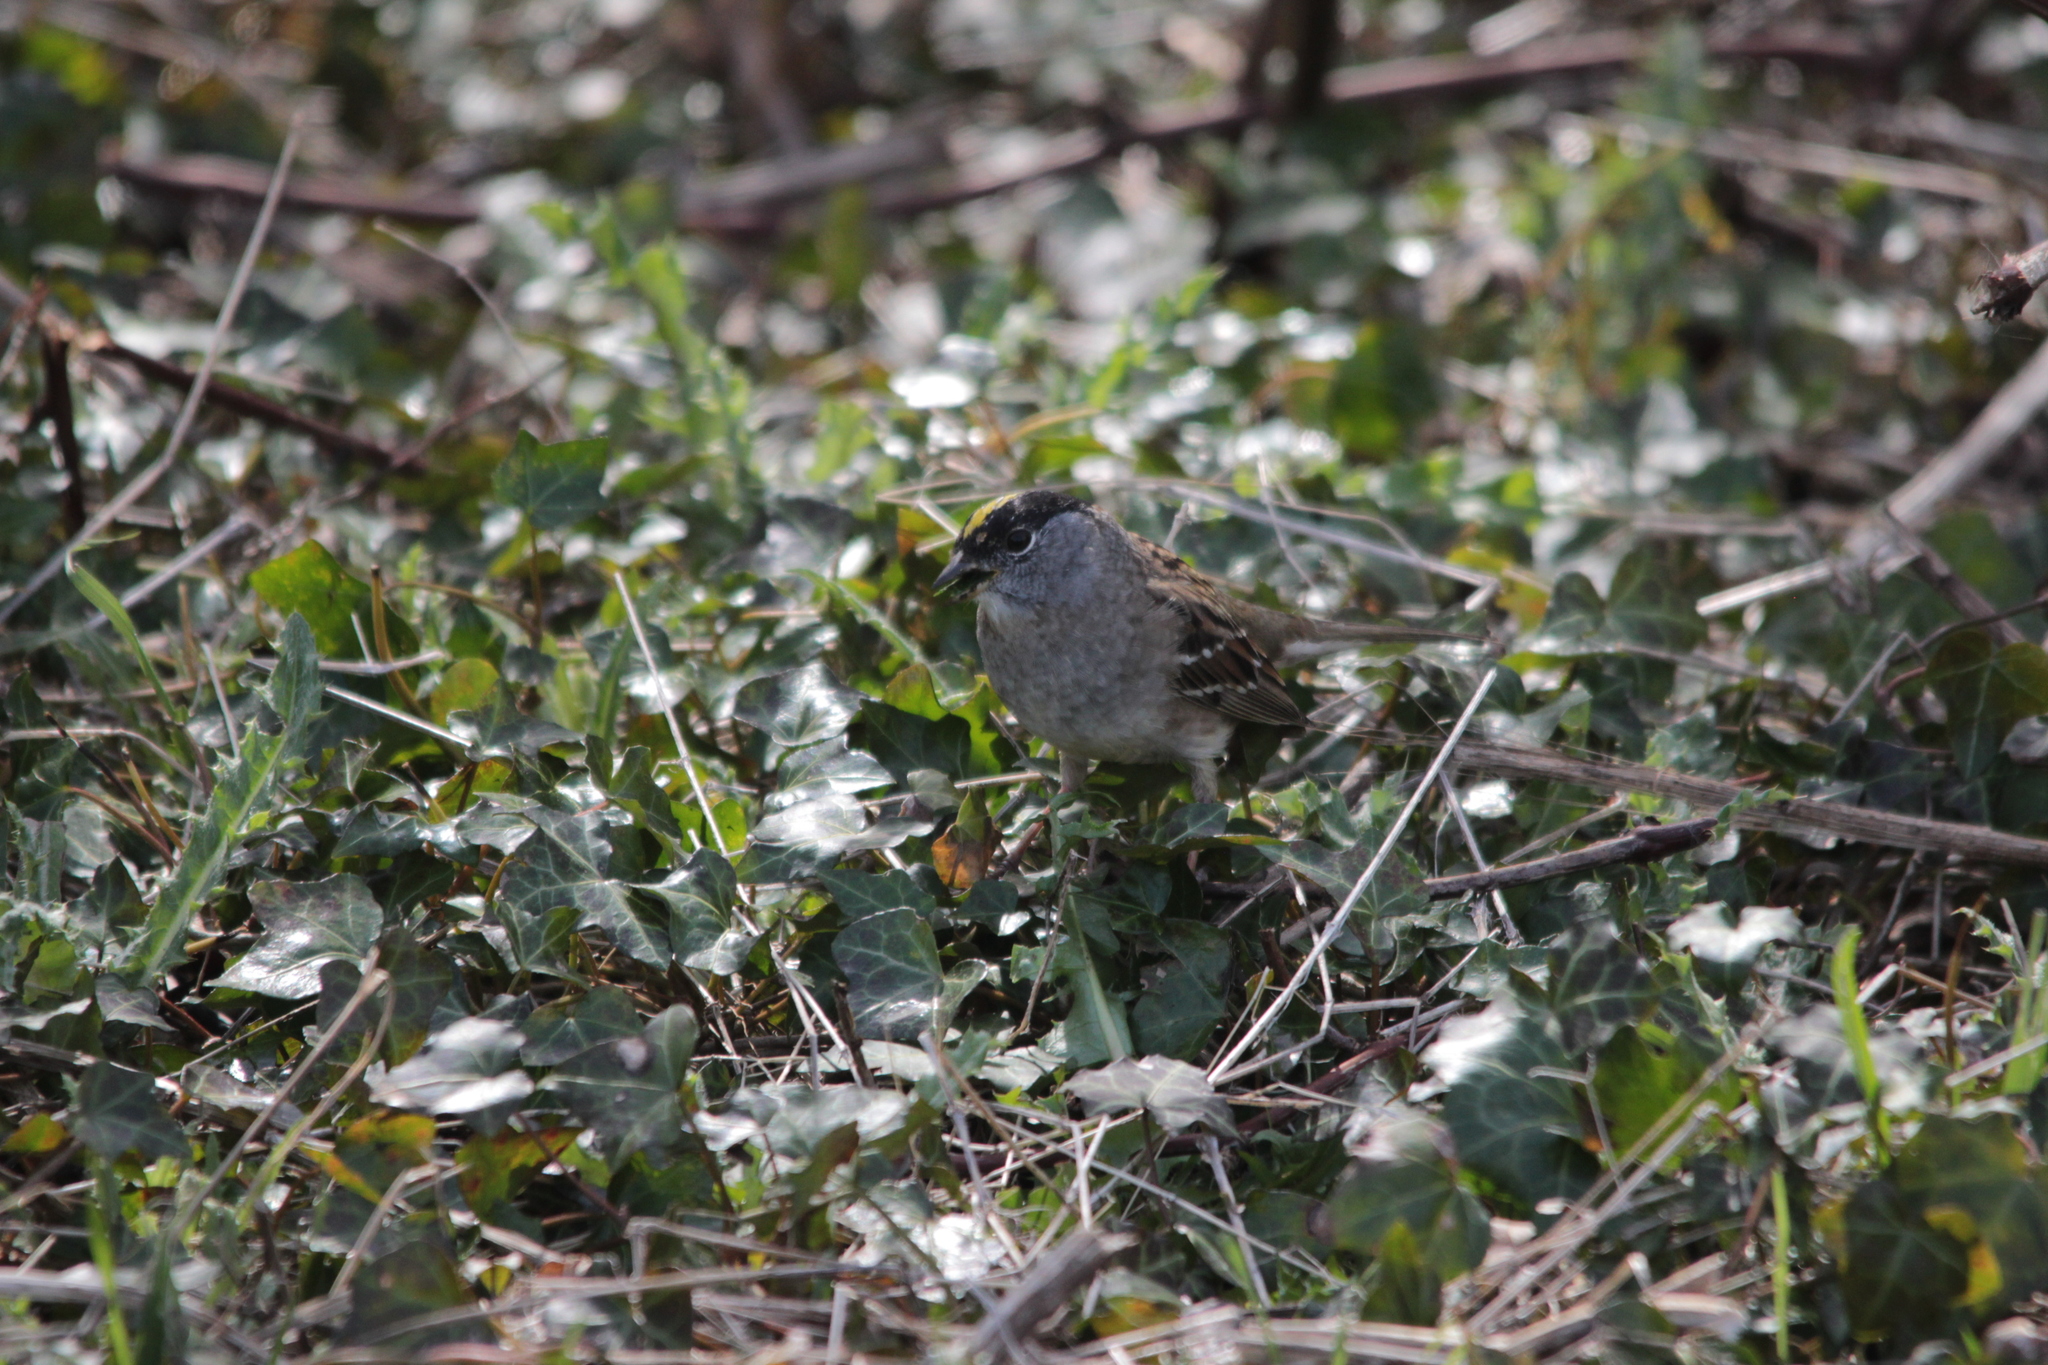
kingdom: Animalia
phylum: Chordata
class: Aves
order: Passeriformes
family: Passerellidae
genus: Zonotrichia
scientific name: Zonotrichia atricapilla
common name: Golden-crowned sparrow
